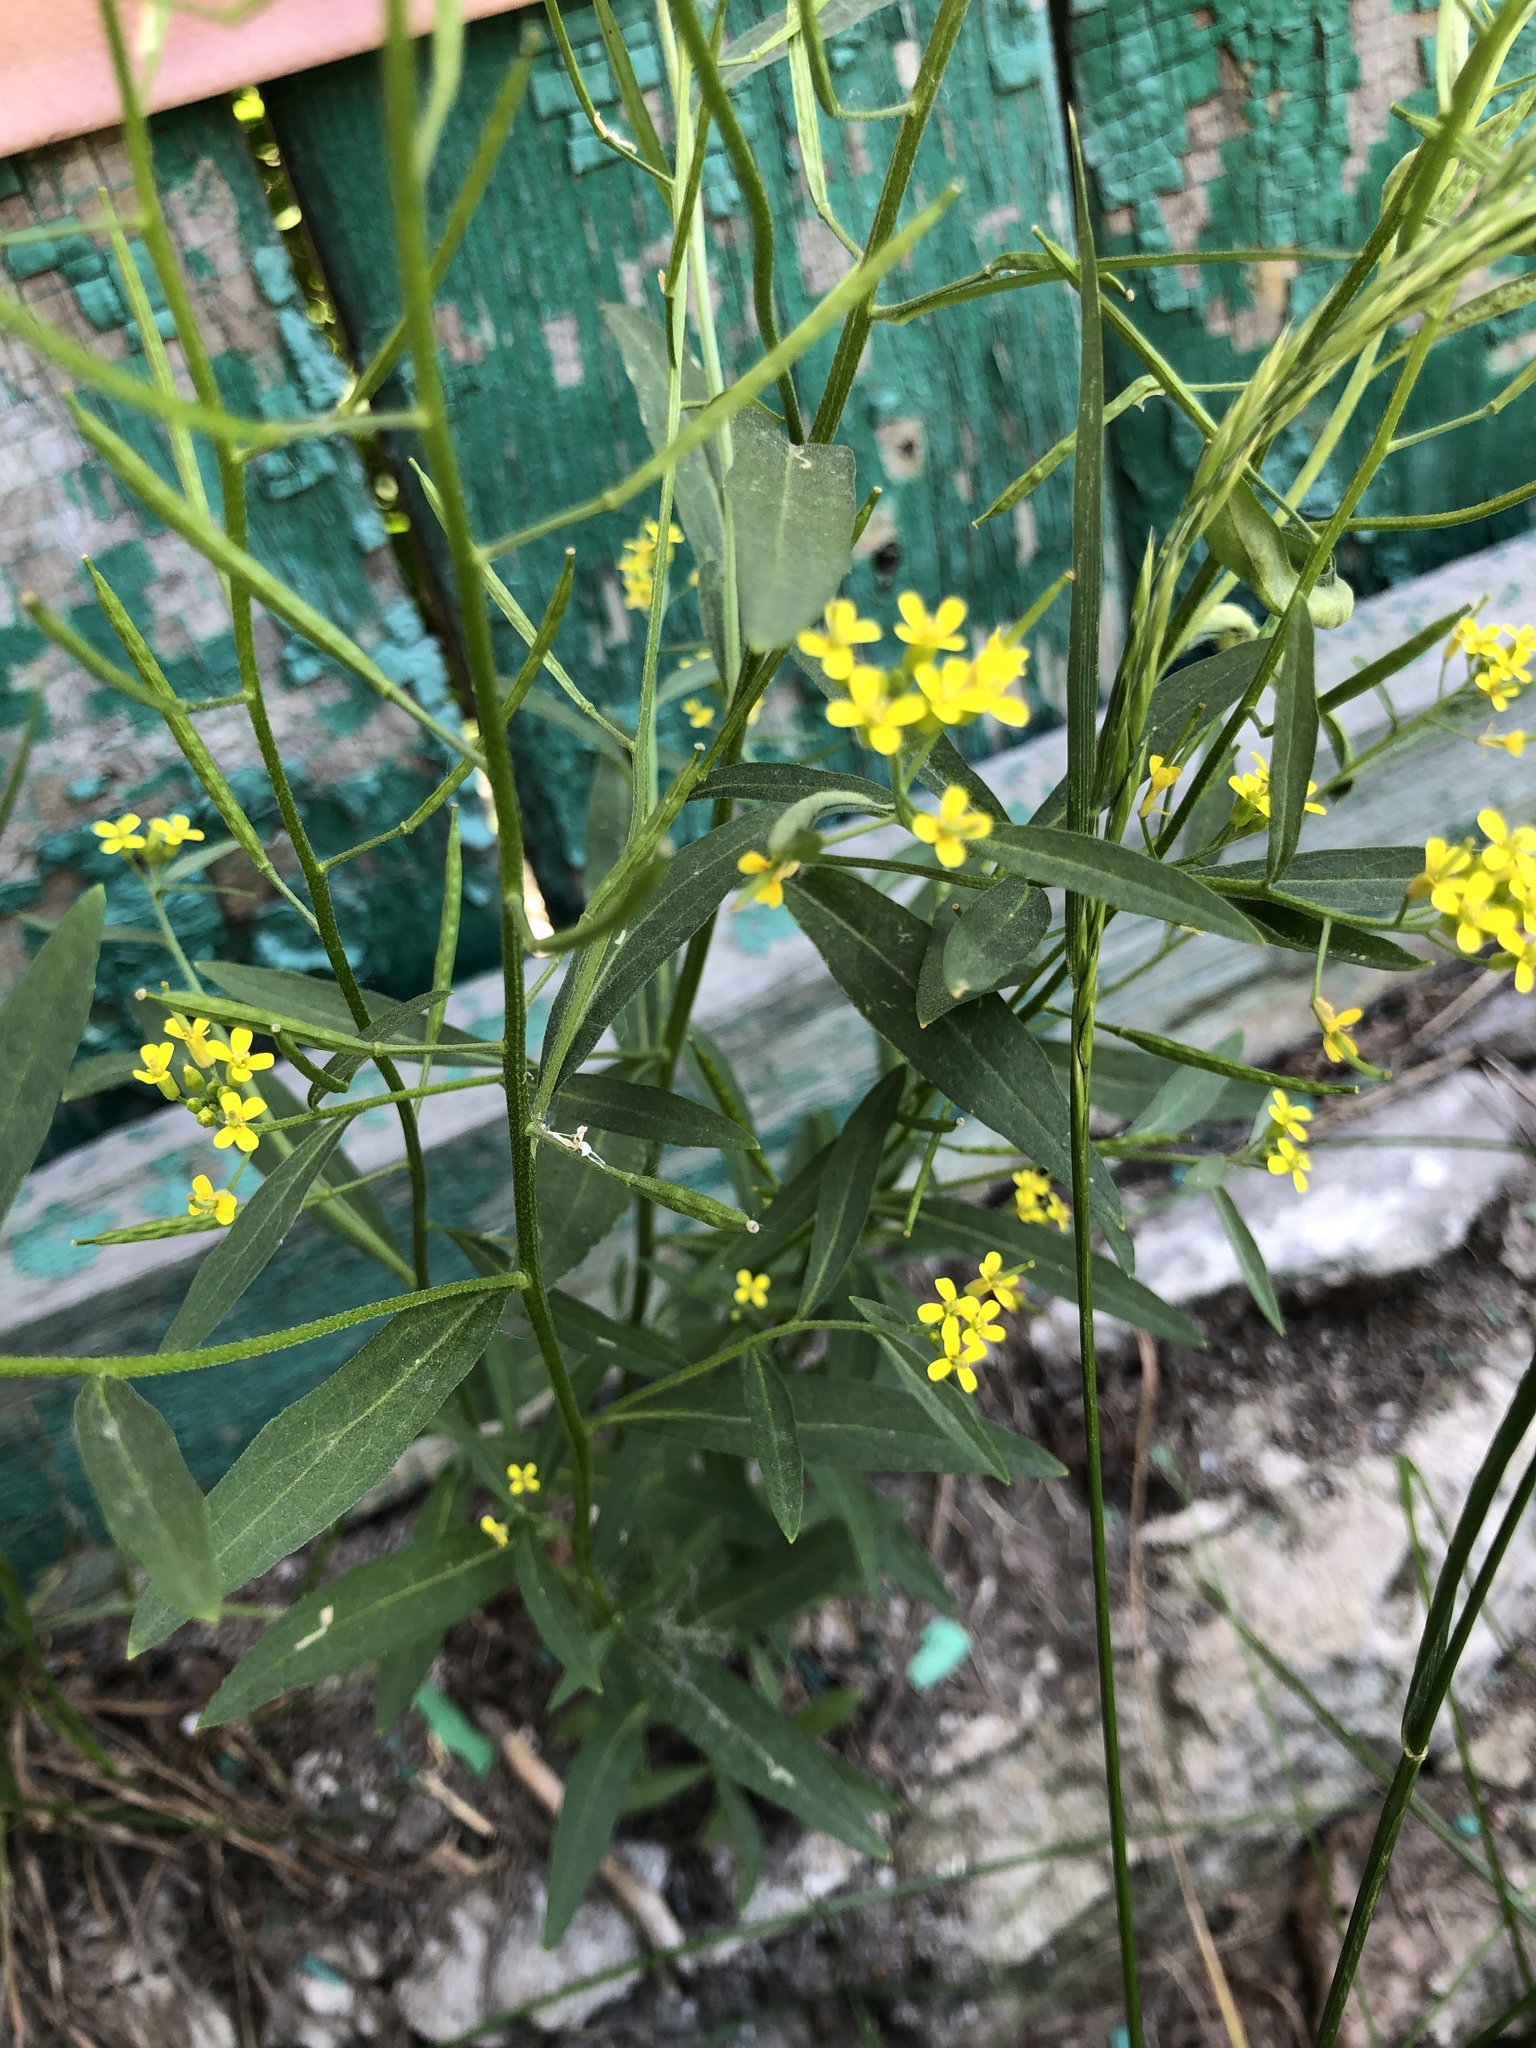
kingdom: Plantae
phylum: Tracheophyta
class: Magnoliopsida
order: Brassicales
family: Brassicaceae
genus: Erysimum
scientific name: Erysimum cheiranthoides
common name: Treacle mustard
